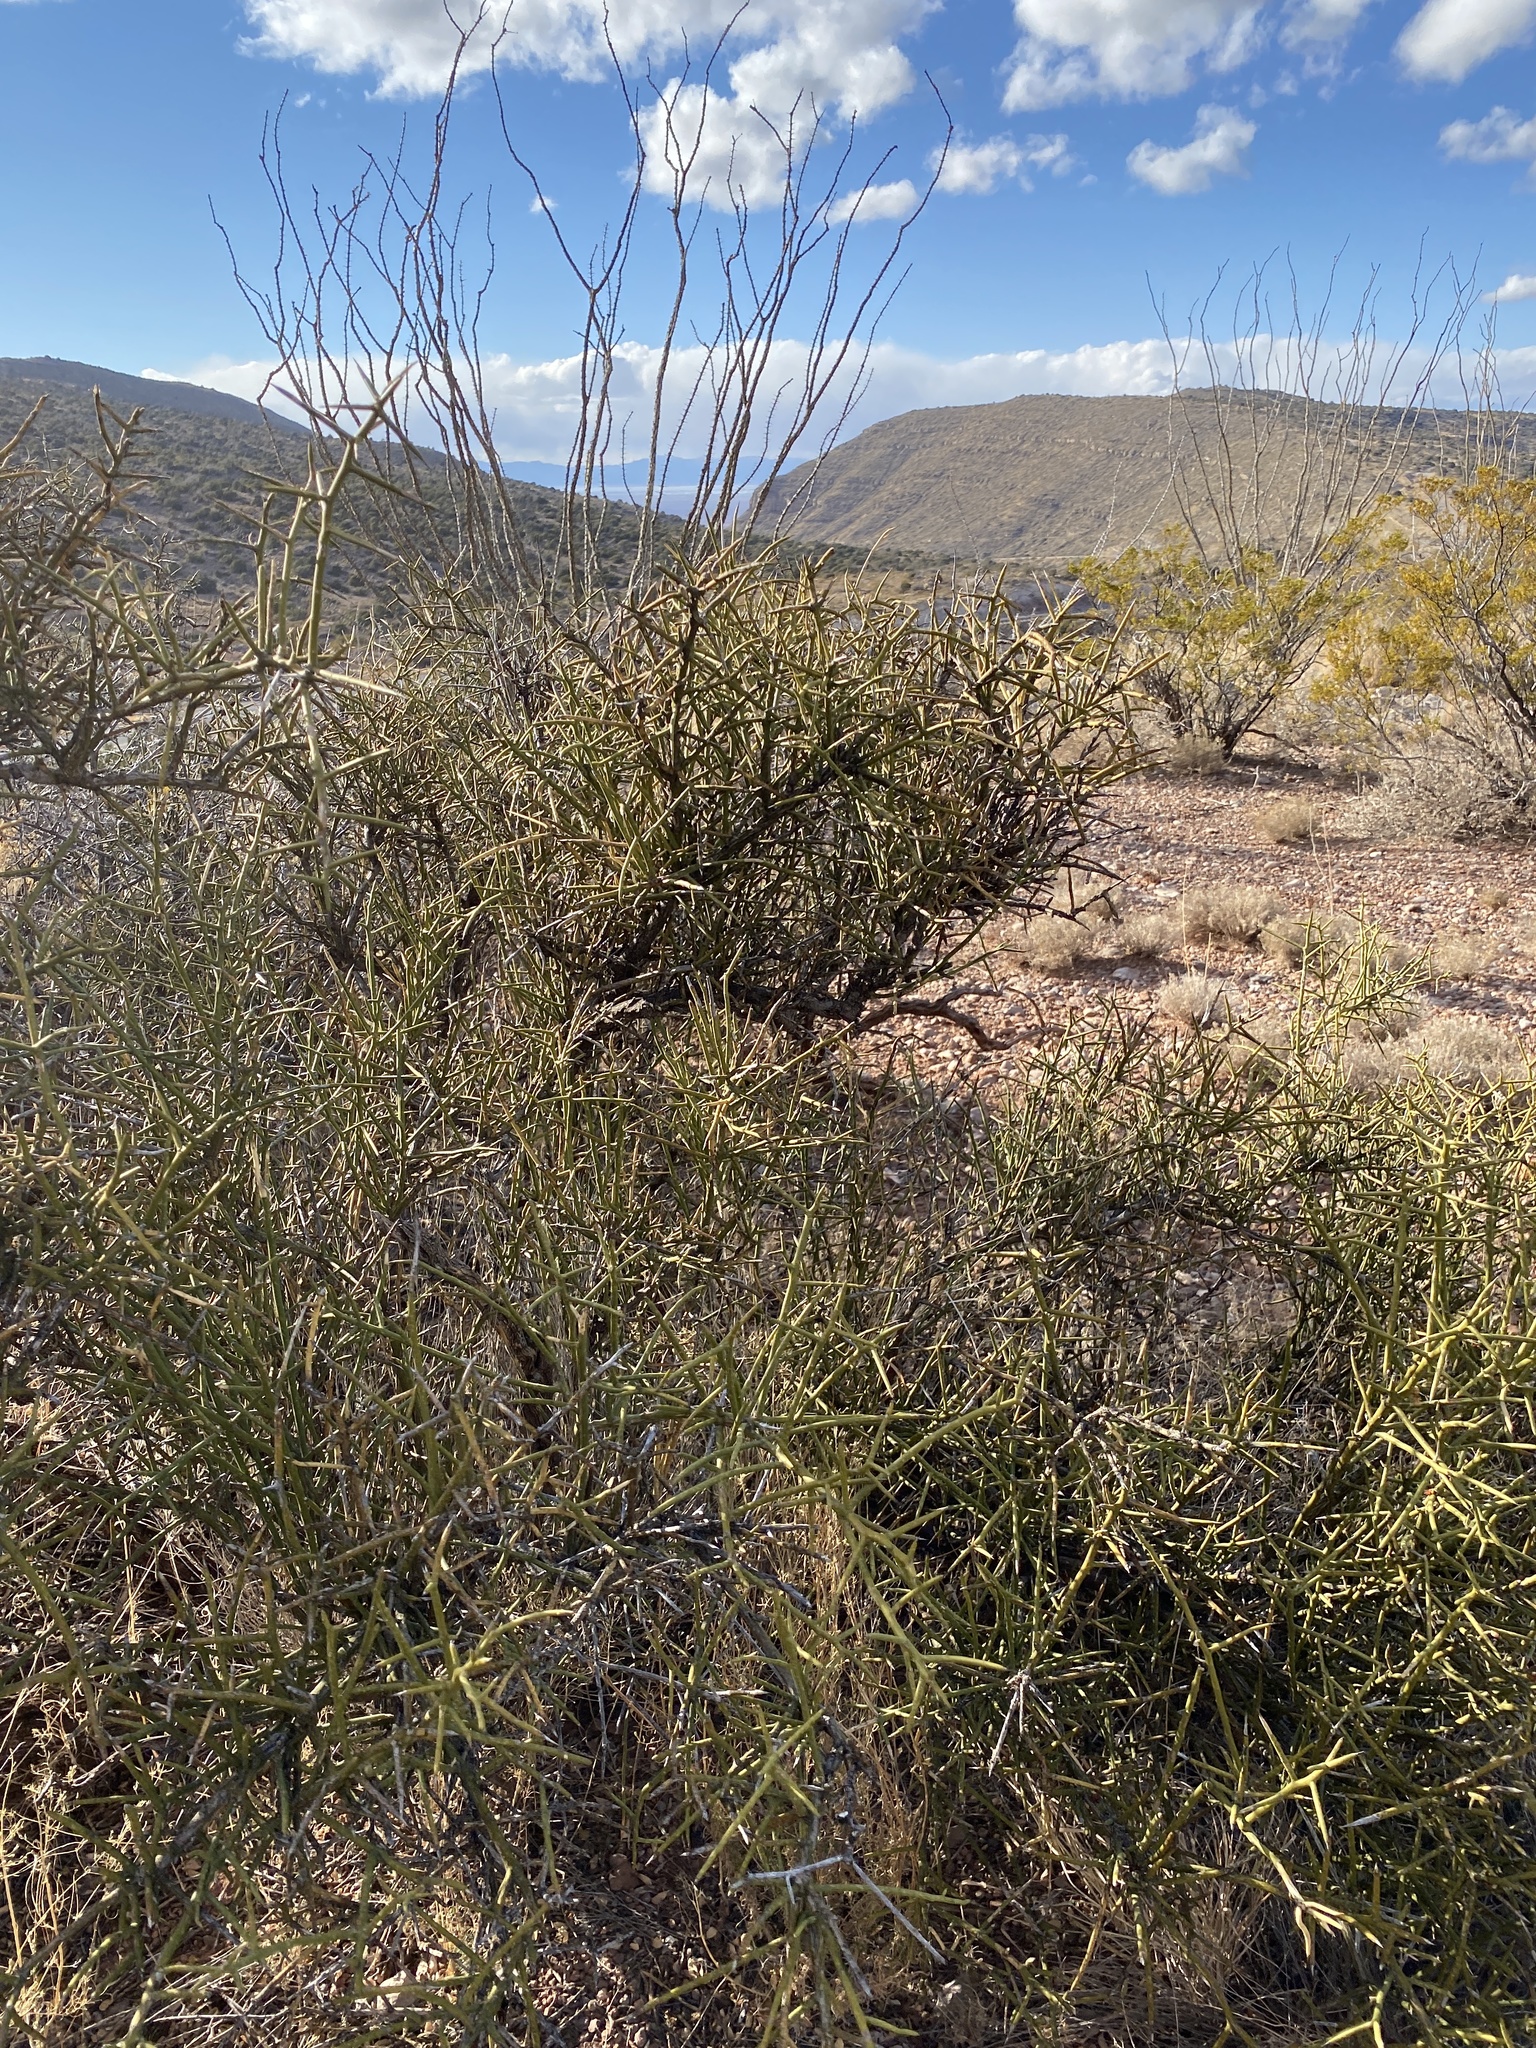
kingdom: Plantae
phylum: Tracheophyta
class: Magnoliopsida
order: Brassicales
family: Koeberliniaceae
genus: Koeberlinia
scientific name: Koeberlinia spinosa
